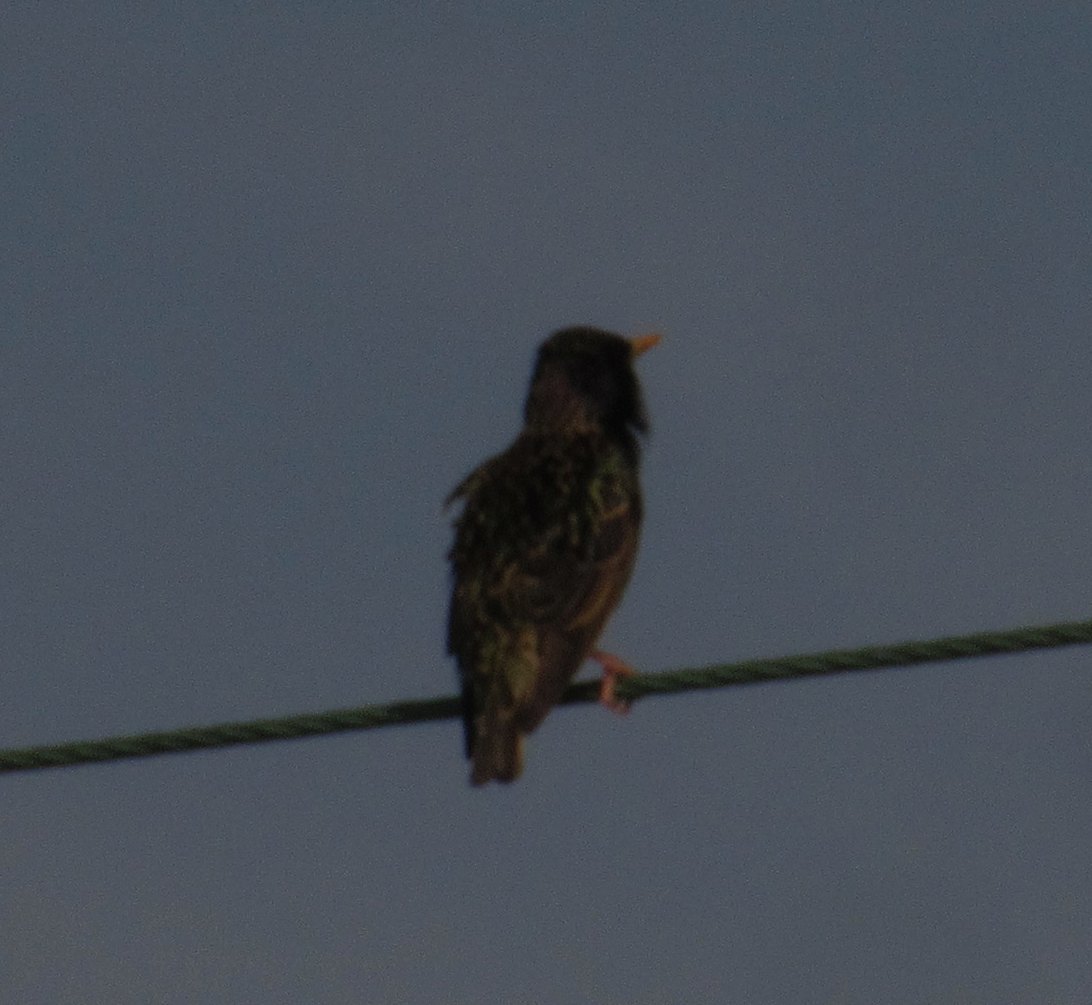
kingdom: Animalia
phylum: Chordata
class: Aves
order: Passeriformes
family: Sturnidae
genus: Sturnus
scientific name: Sturnus vulgaris
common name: Common starling
